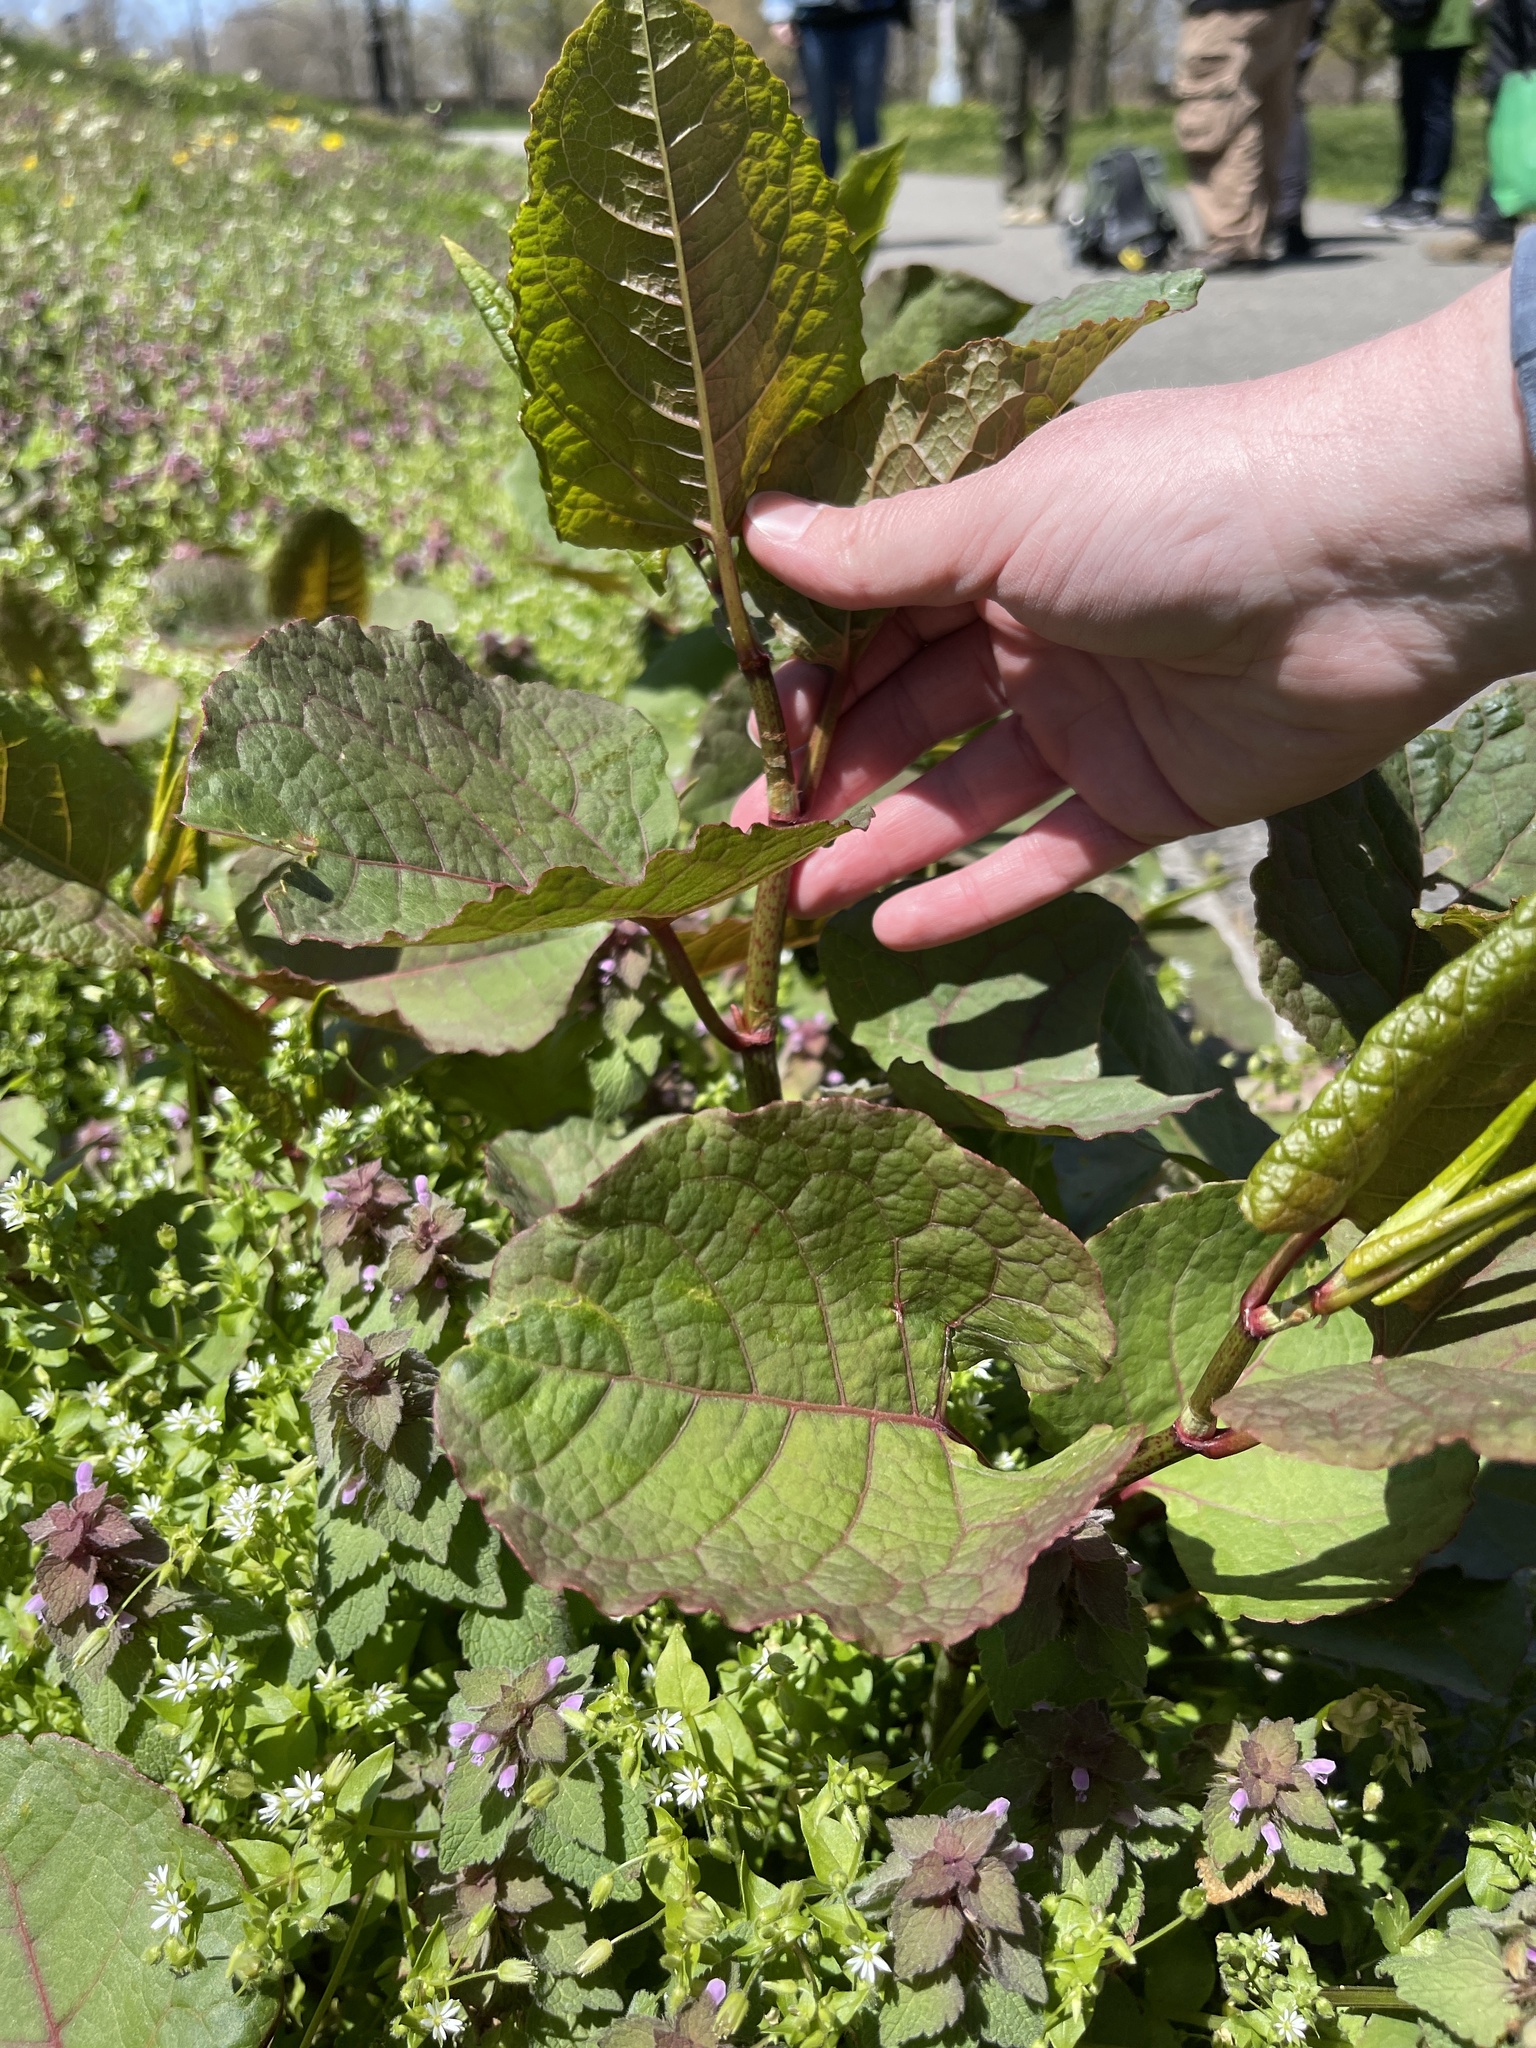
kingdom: Plantae
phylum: Tracheophyta
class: Magnoliopsida
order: Caryophyllales
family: Polygonaceae
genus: Reynoutria
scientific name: Reynoutria japonica
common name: Japanese knotweed
